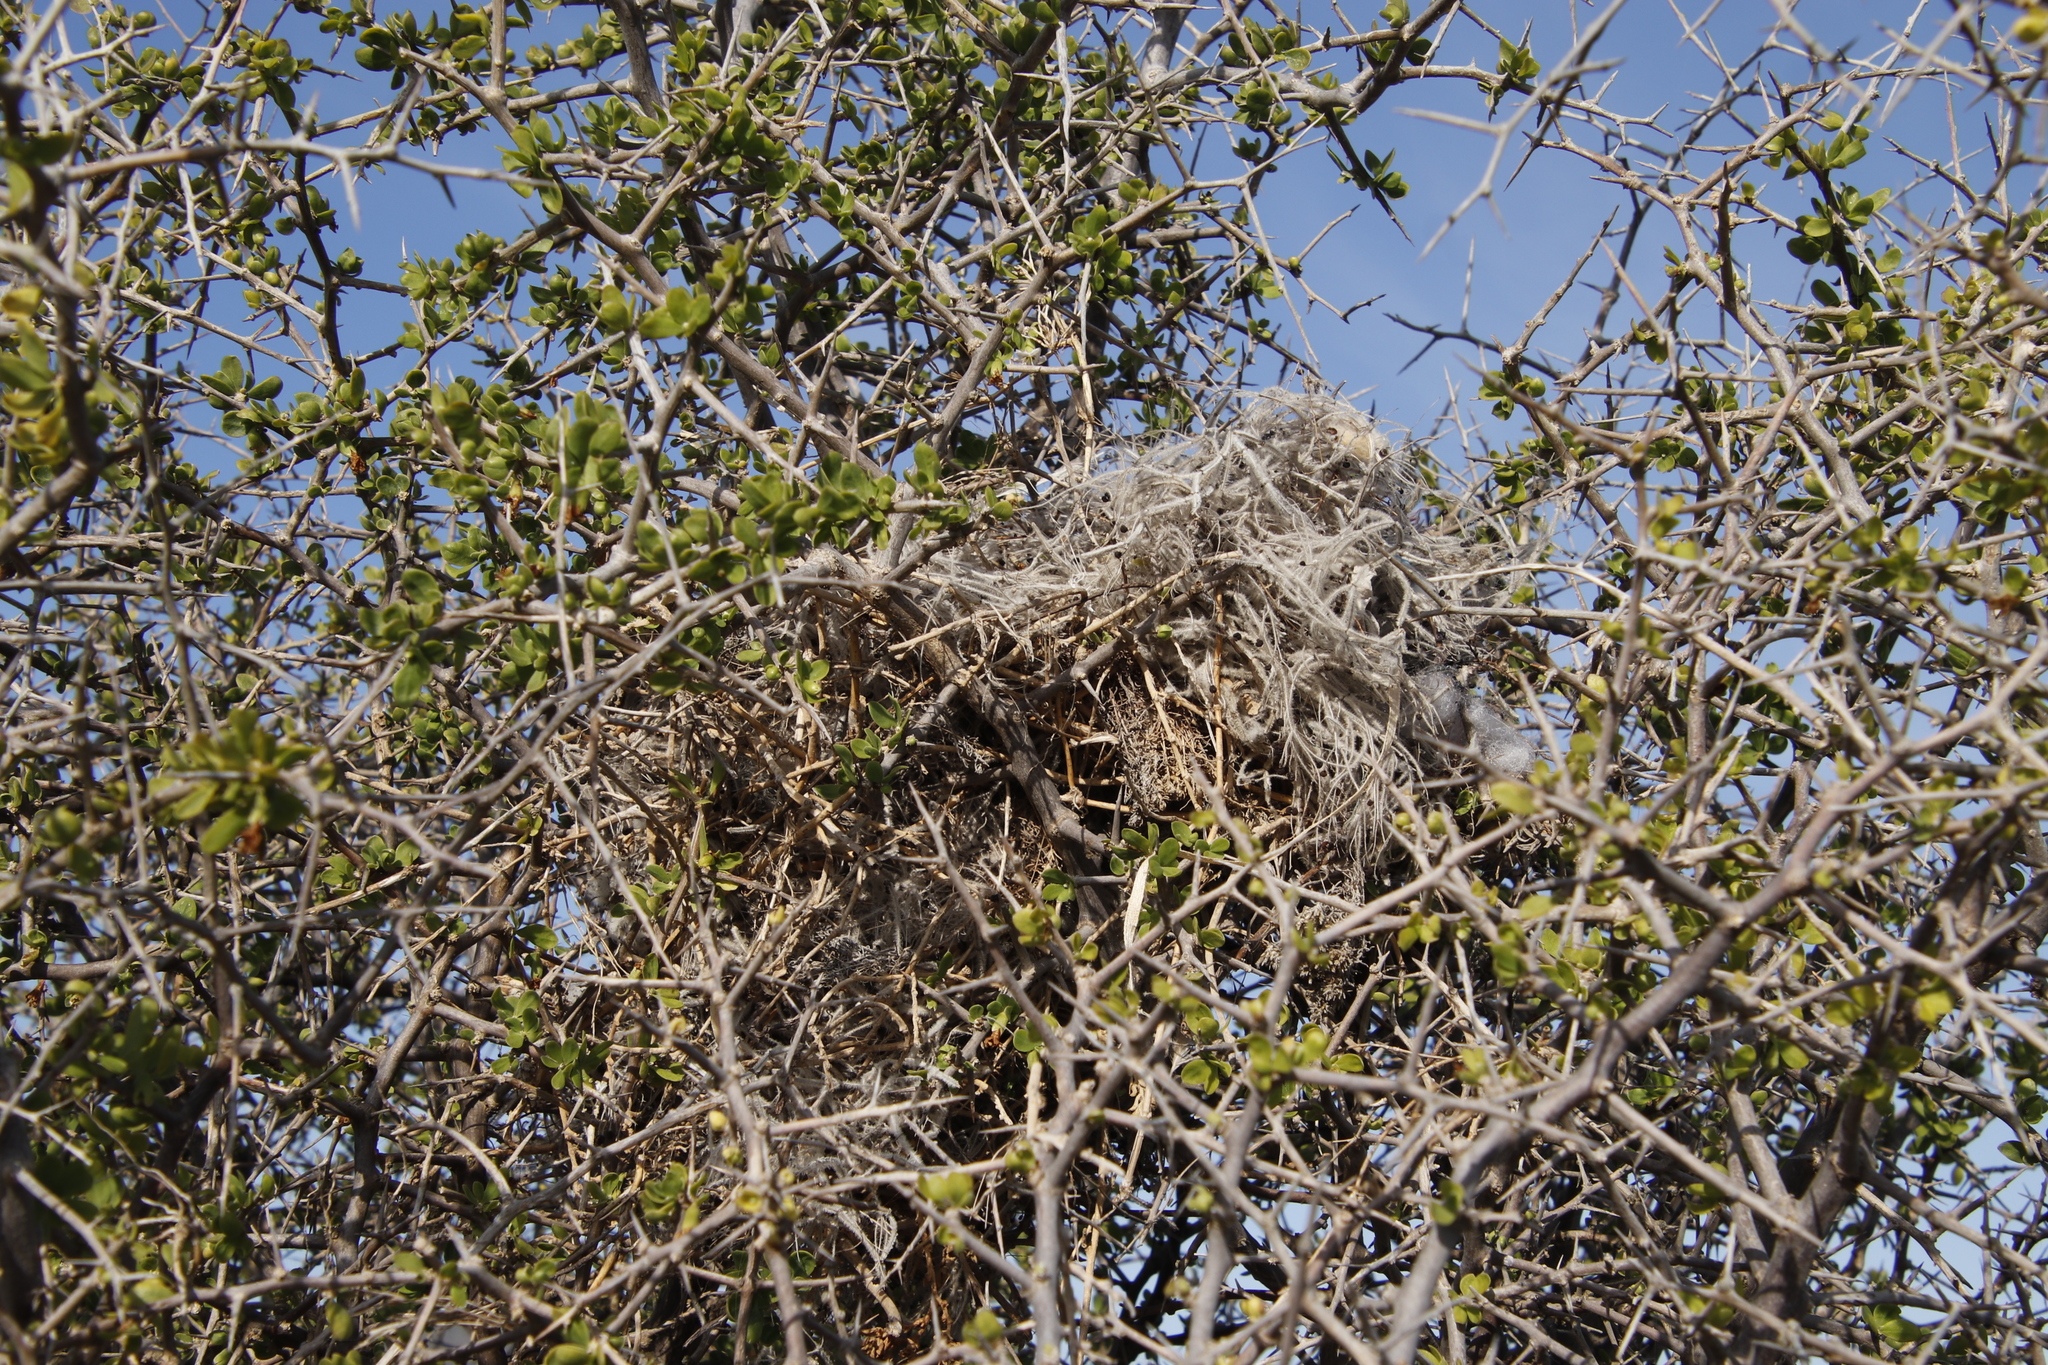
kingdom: Plantae
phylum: Tracheophyta
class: Magnoliopsida
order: Gentianales
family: Rubiaceae
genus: Galium
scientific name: Galium tomentosum
